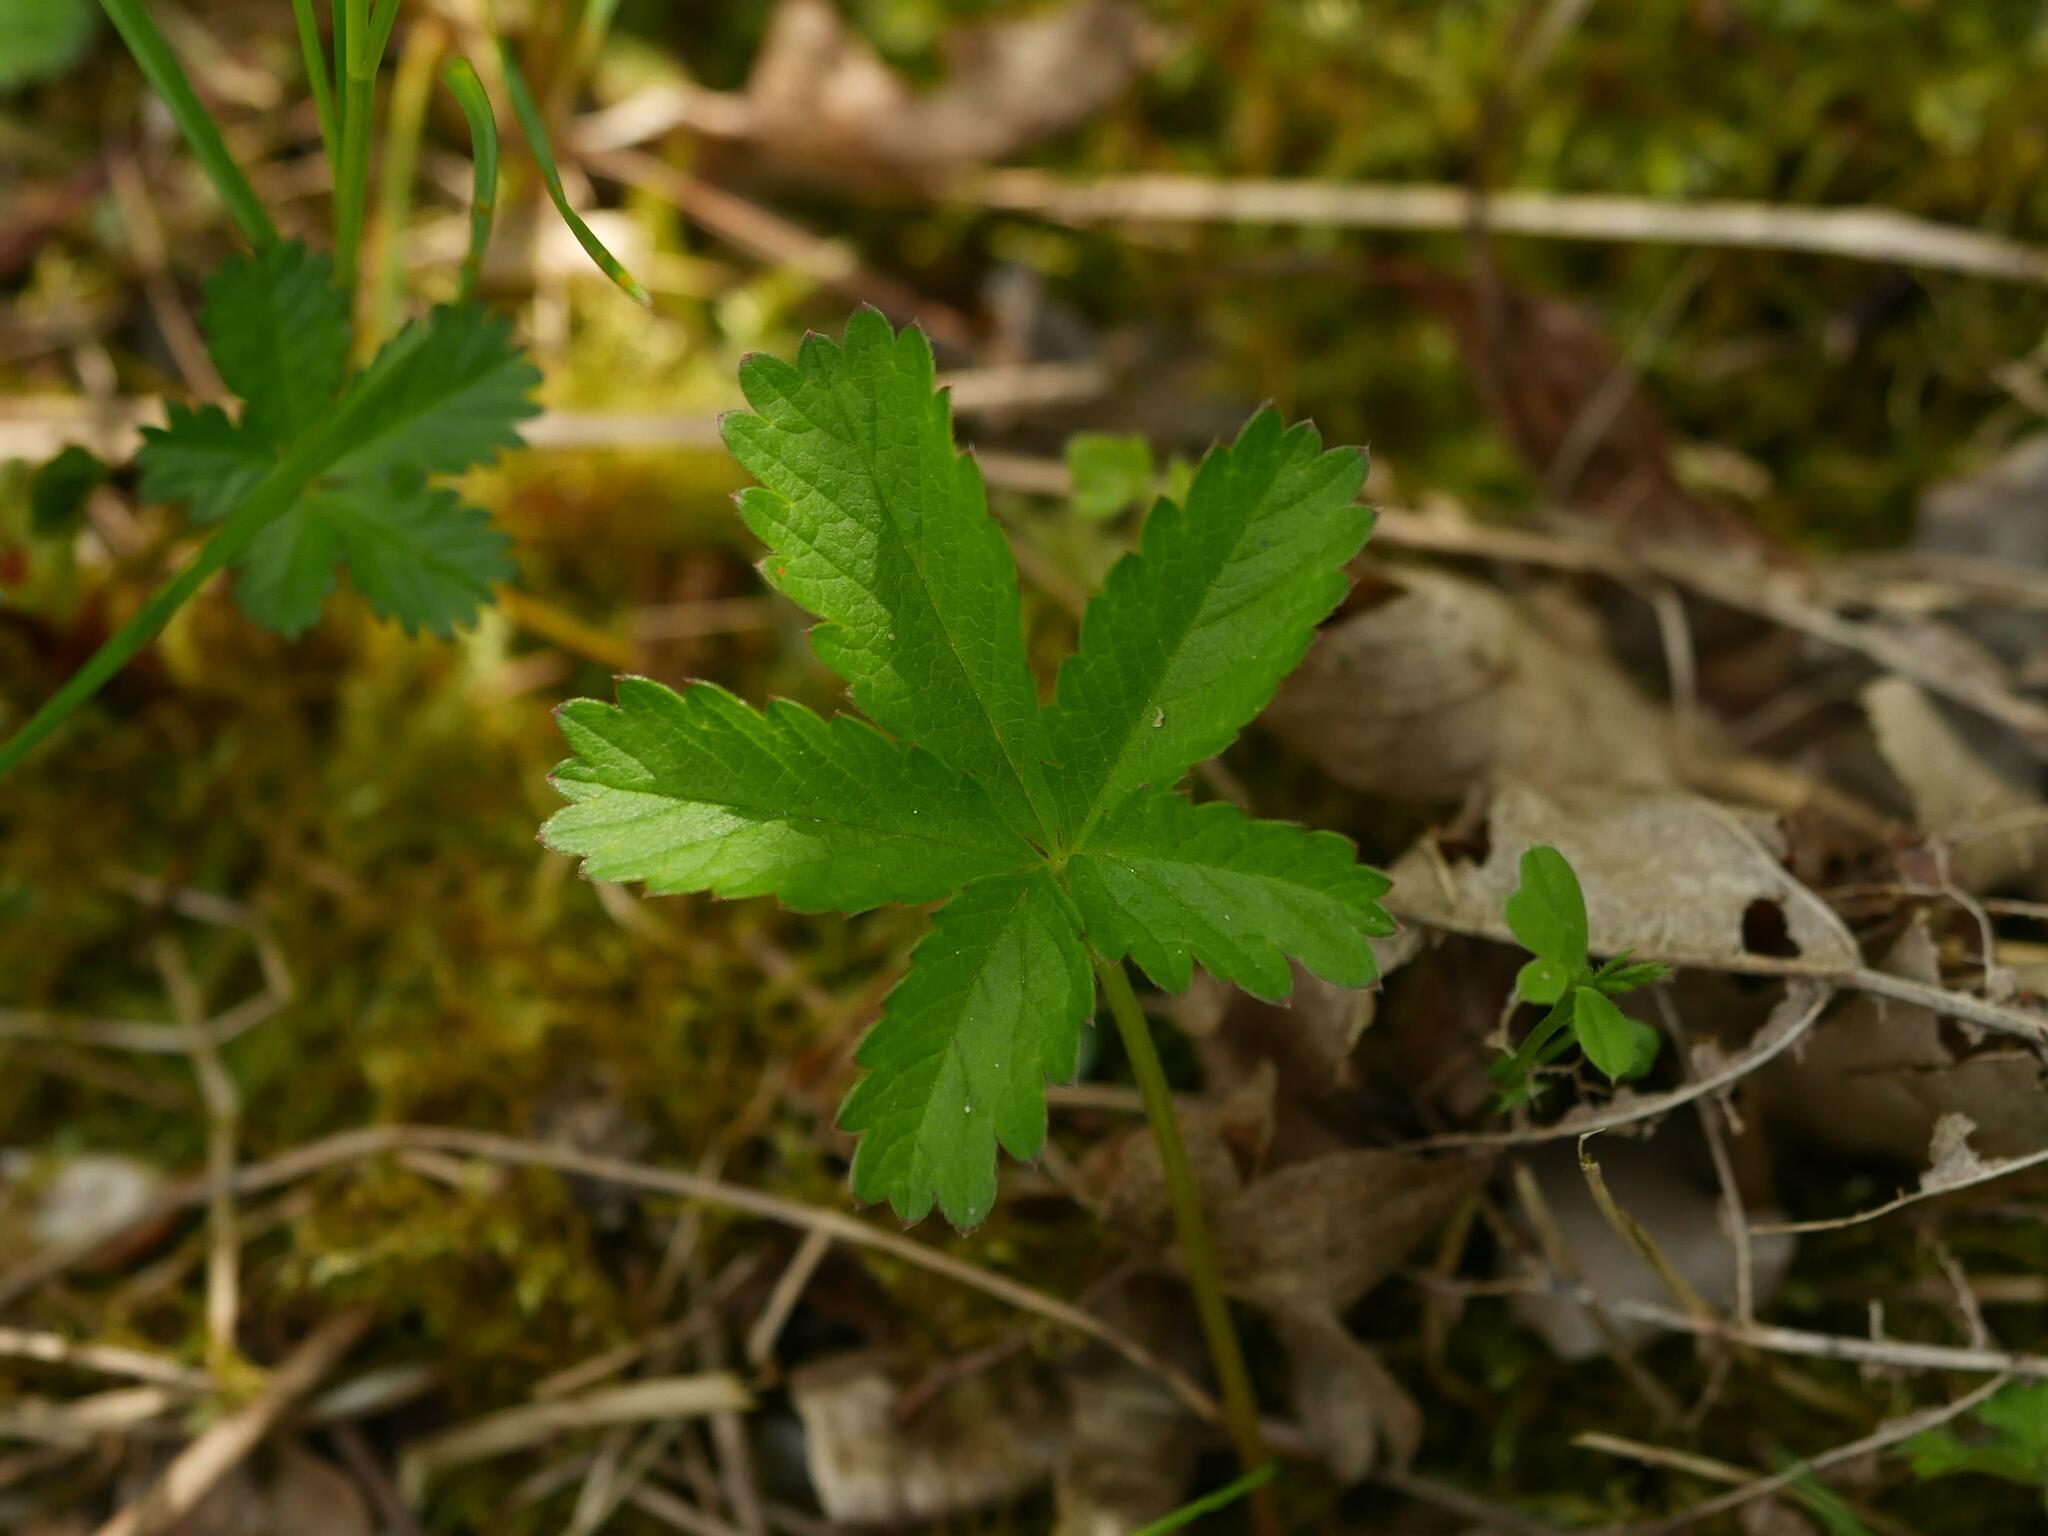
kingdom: Plantae
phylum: Tracheophyta
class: Magnoliopsida
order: Rosales
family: Rosaceae
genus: Potentilla
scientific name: Potentilla reptans
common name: Creeping cinquefoil
